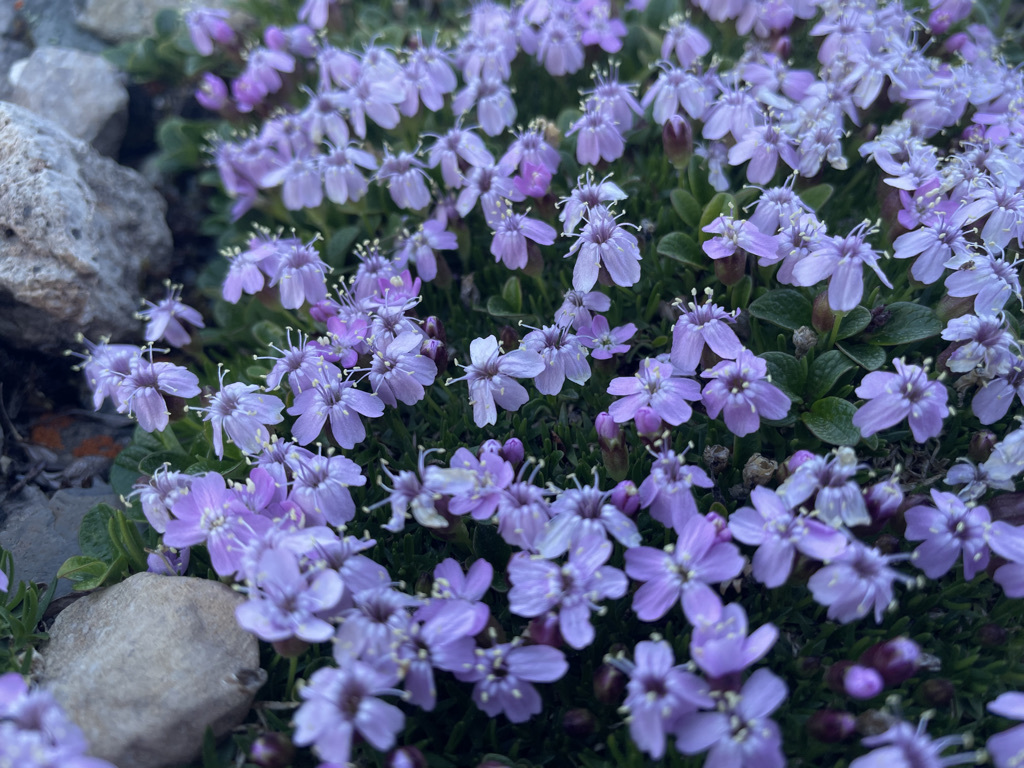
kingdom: Plantae
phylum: Tracheophyta
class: Magnoliopsida
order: Caryophyllales
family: Caryophyllaceae
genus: Silene
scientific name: Silene acaulis
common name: Moss campion
